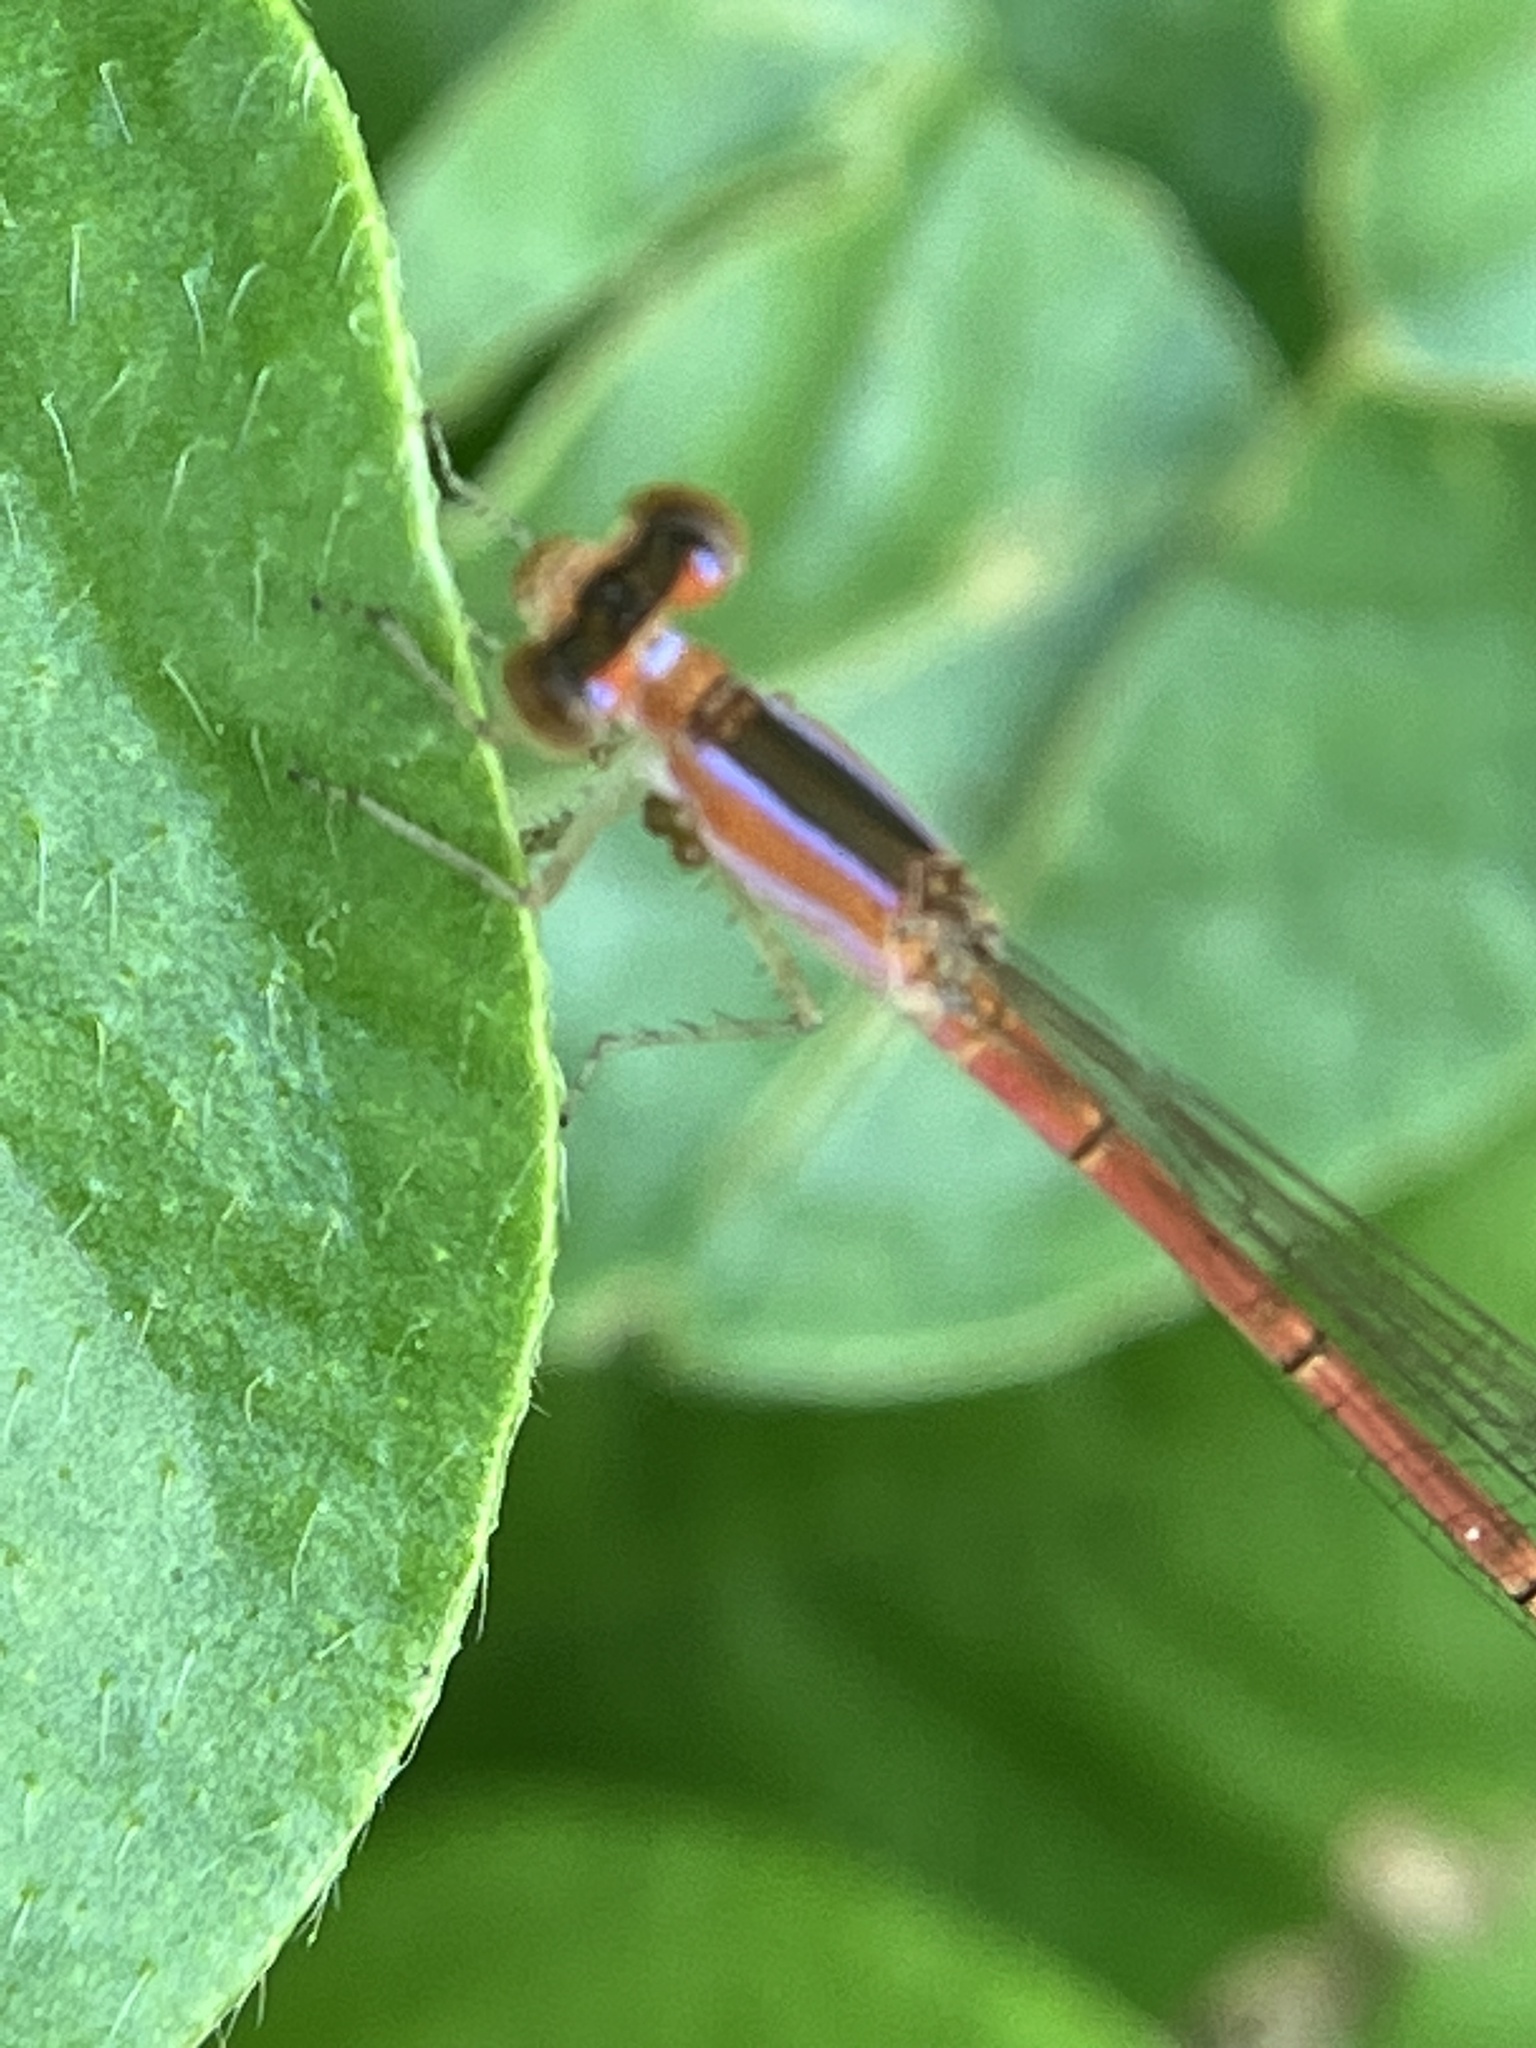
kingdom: Animalia
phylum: Arthropoda
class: Insecta
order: Odonata
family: Coenagrionidae
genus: Agriocnemis
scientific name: Agriocnemis pygmaea
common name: Pygmy wisp
